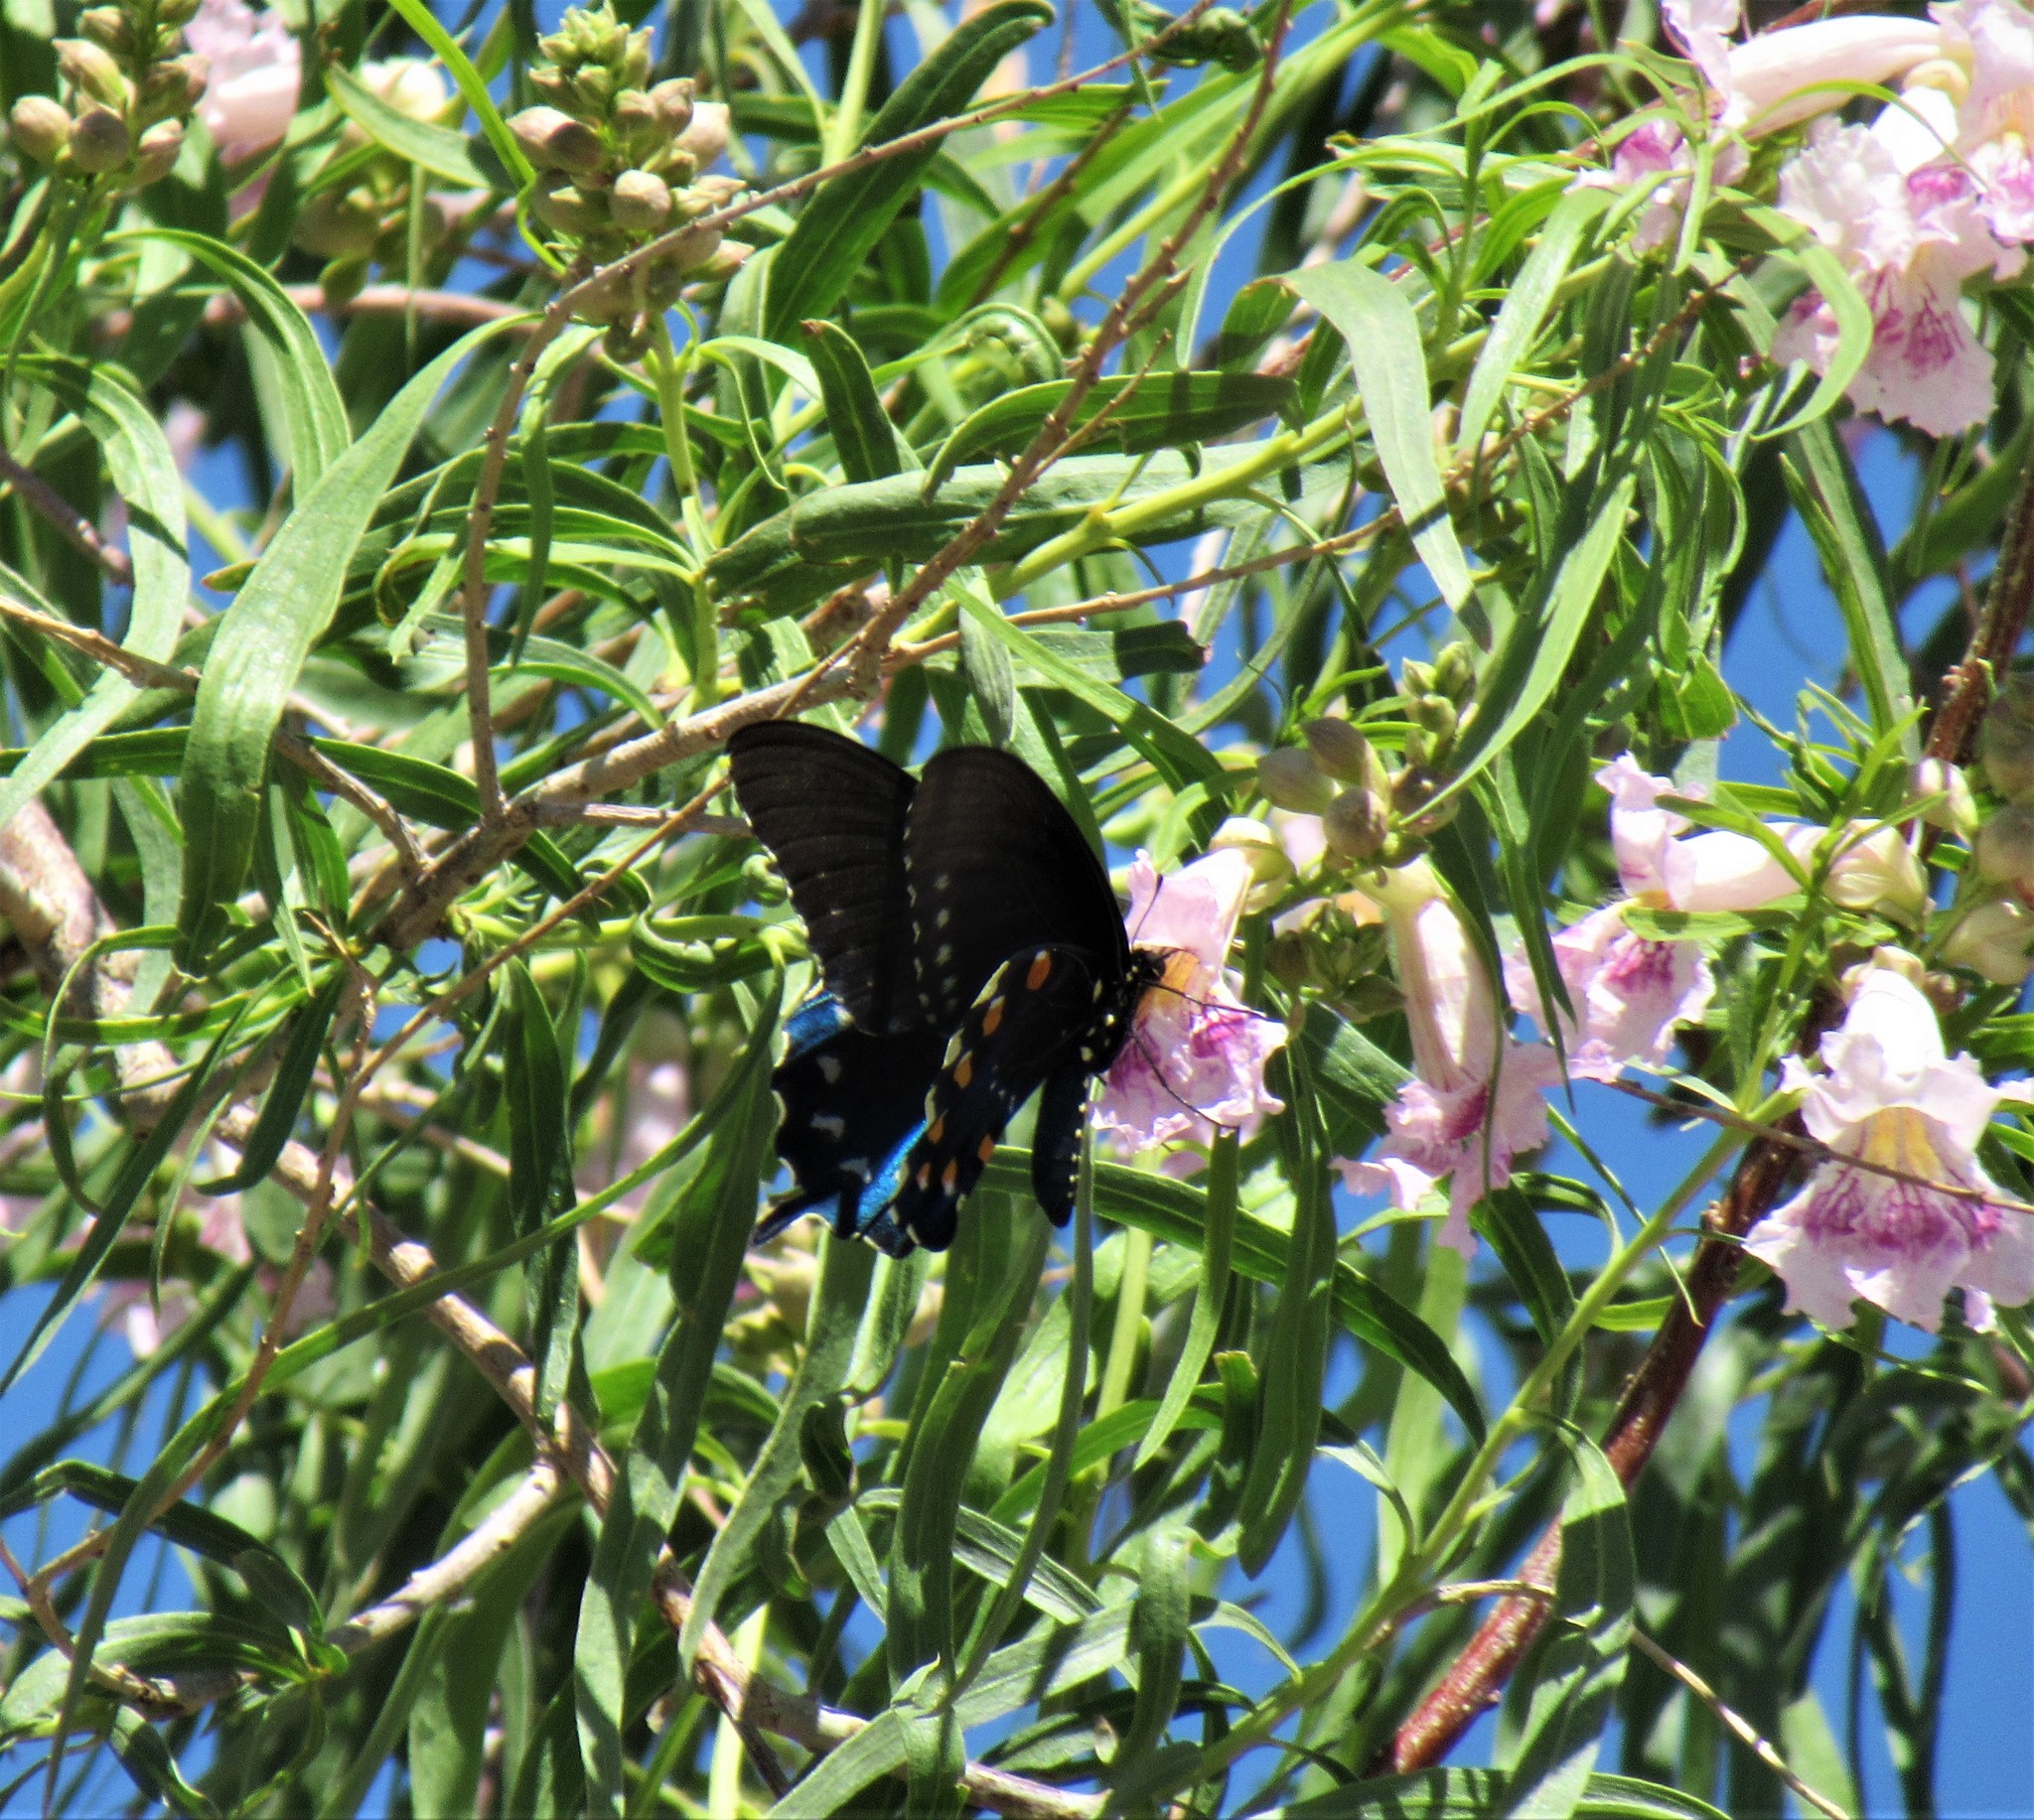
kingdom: Animalia
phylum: Arthropoda
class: Insecta
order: Lepidoptera
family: Papilionidae
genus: Battus
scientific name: Battus philenor
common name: Pipevine swallowtail
